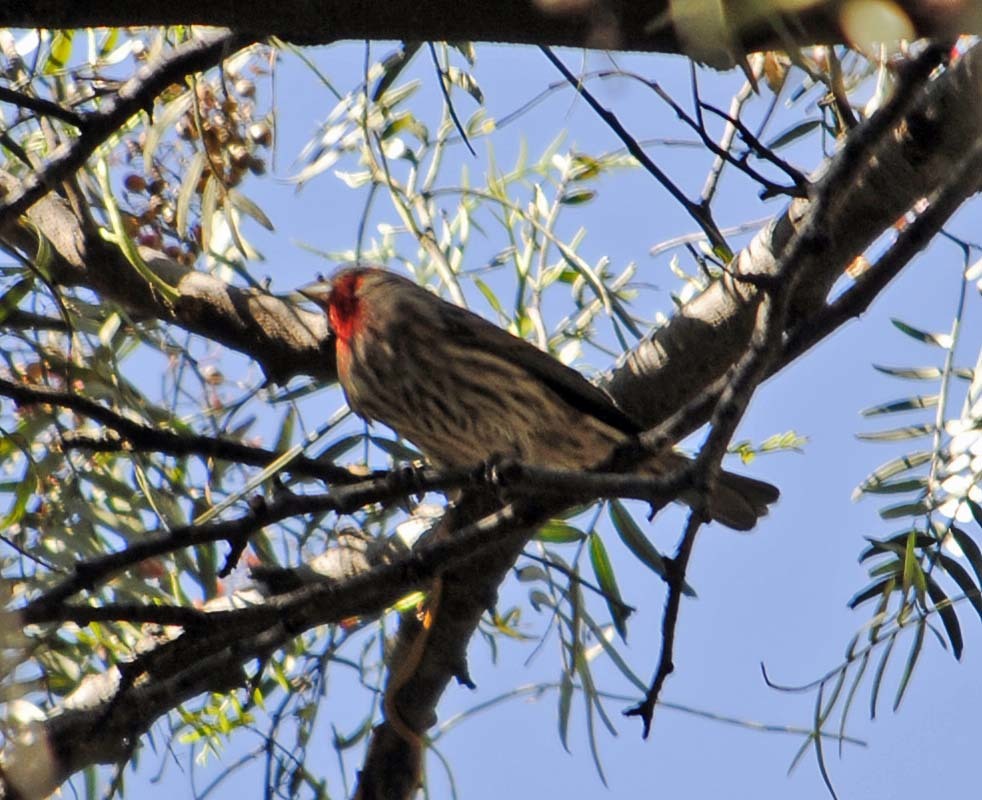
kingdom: Animalia
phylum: Chordata
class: Aves
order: Passeriformes
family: Fringillidae
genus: Haemorhous
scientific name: Haemorhous mexicanus
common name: House finch
